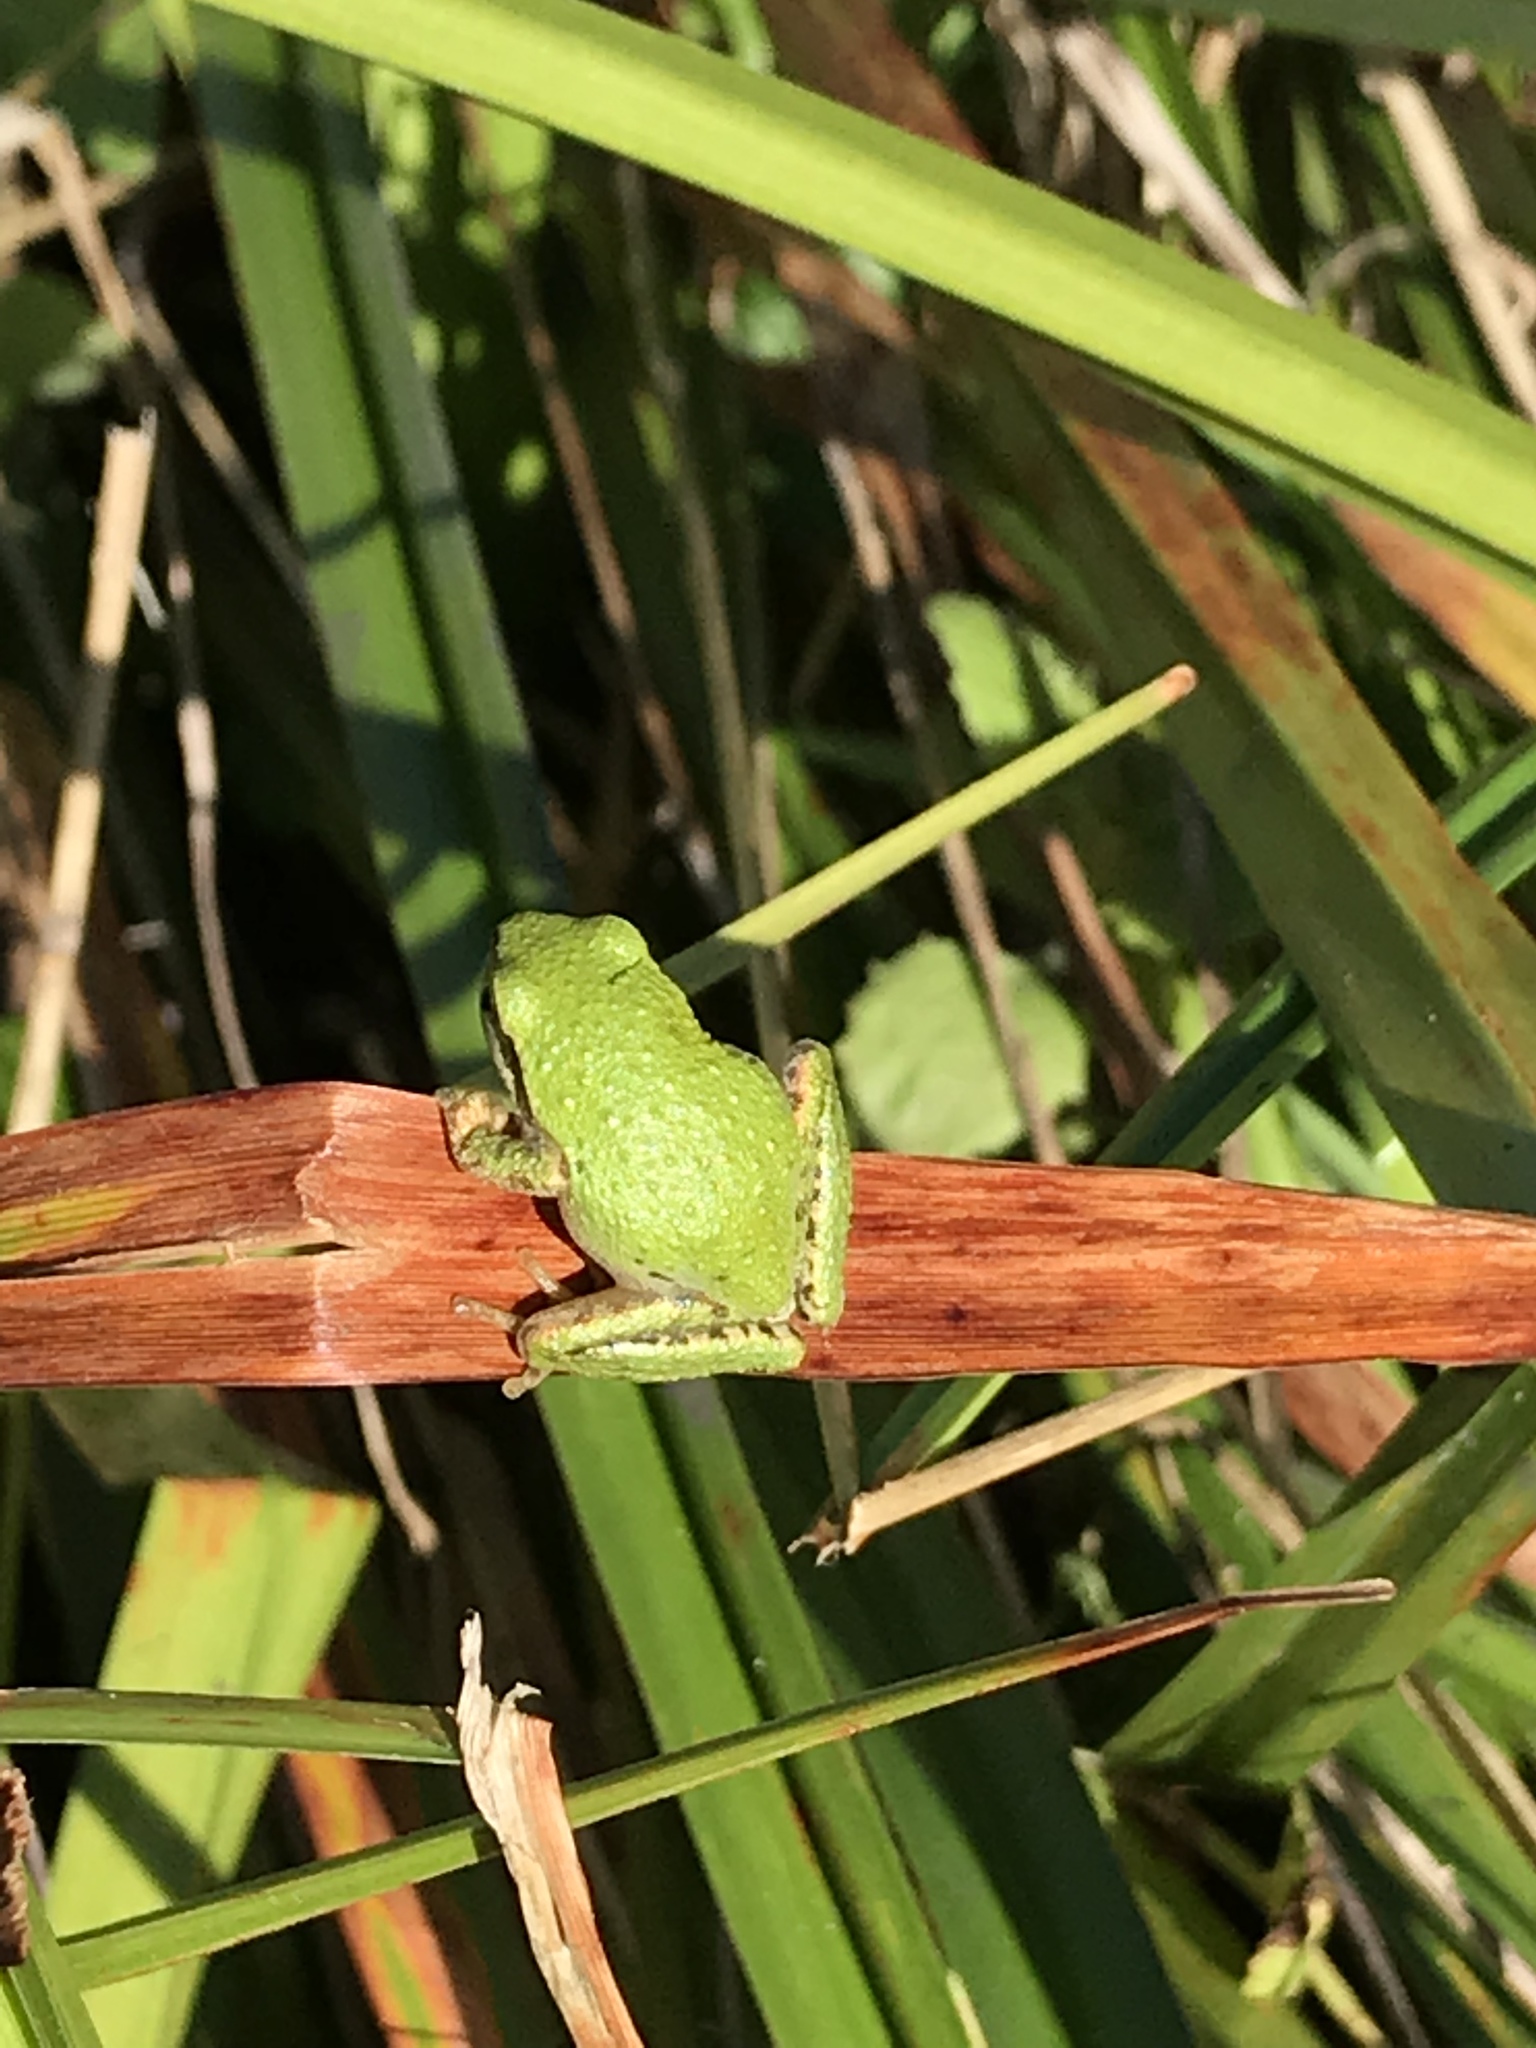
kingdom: Animalia
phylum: Chordata
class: Amphibia
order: Anura
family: Hylidae
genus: Pseudacris
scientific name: Pseudacris regilla
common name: Pacific chorus frog
